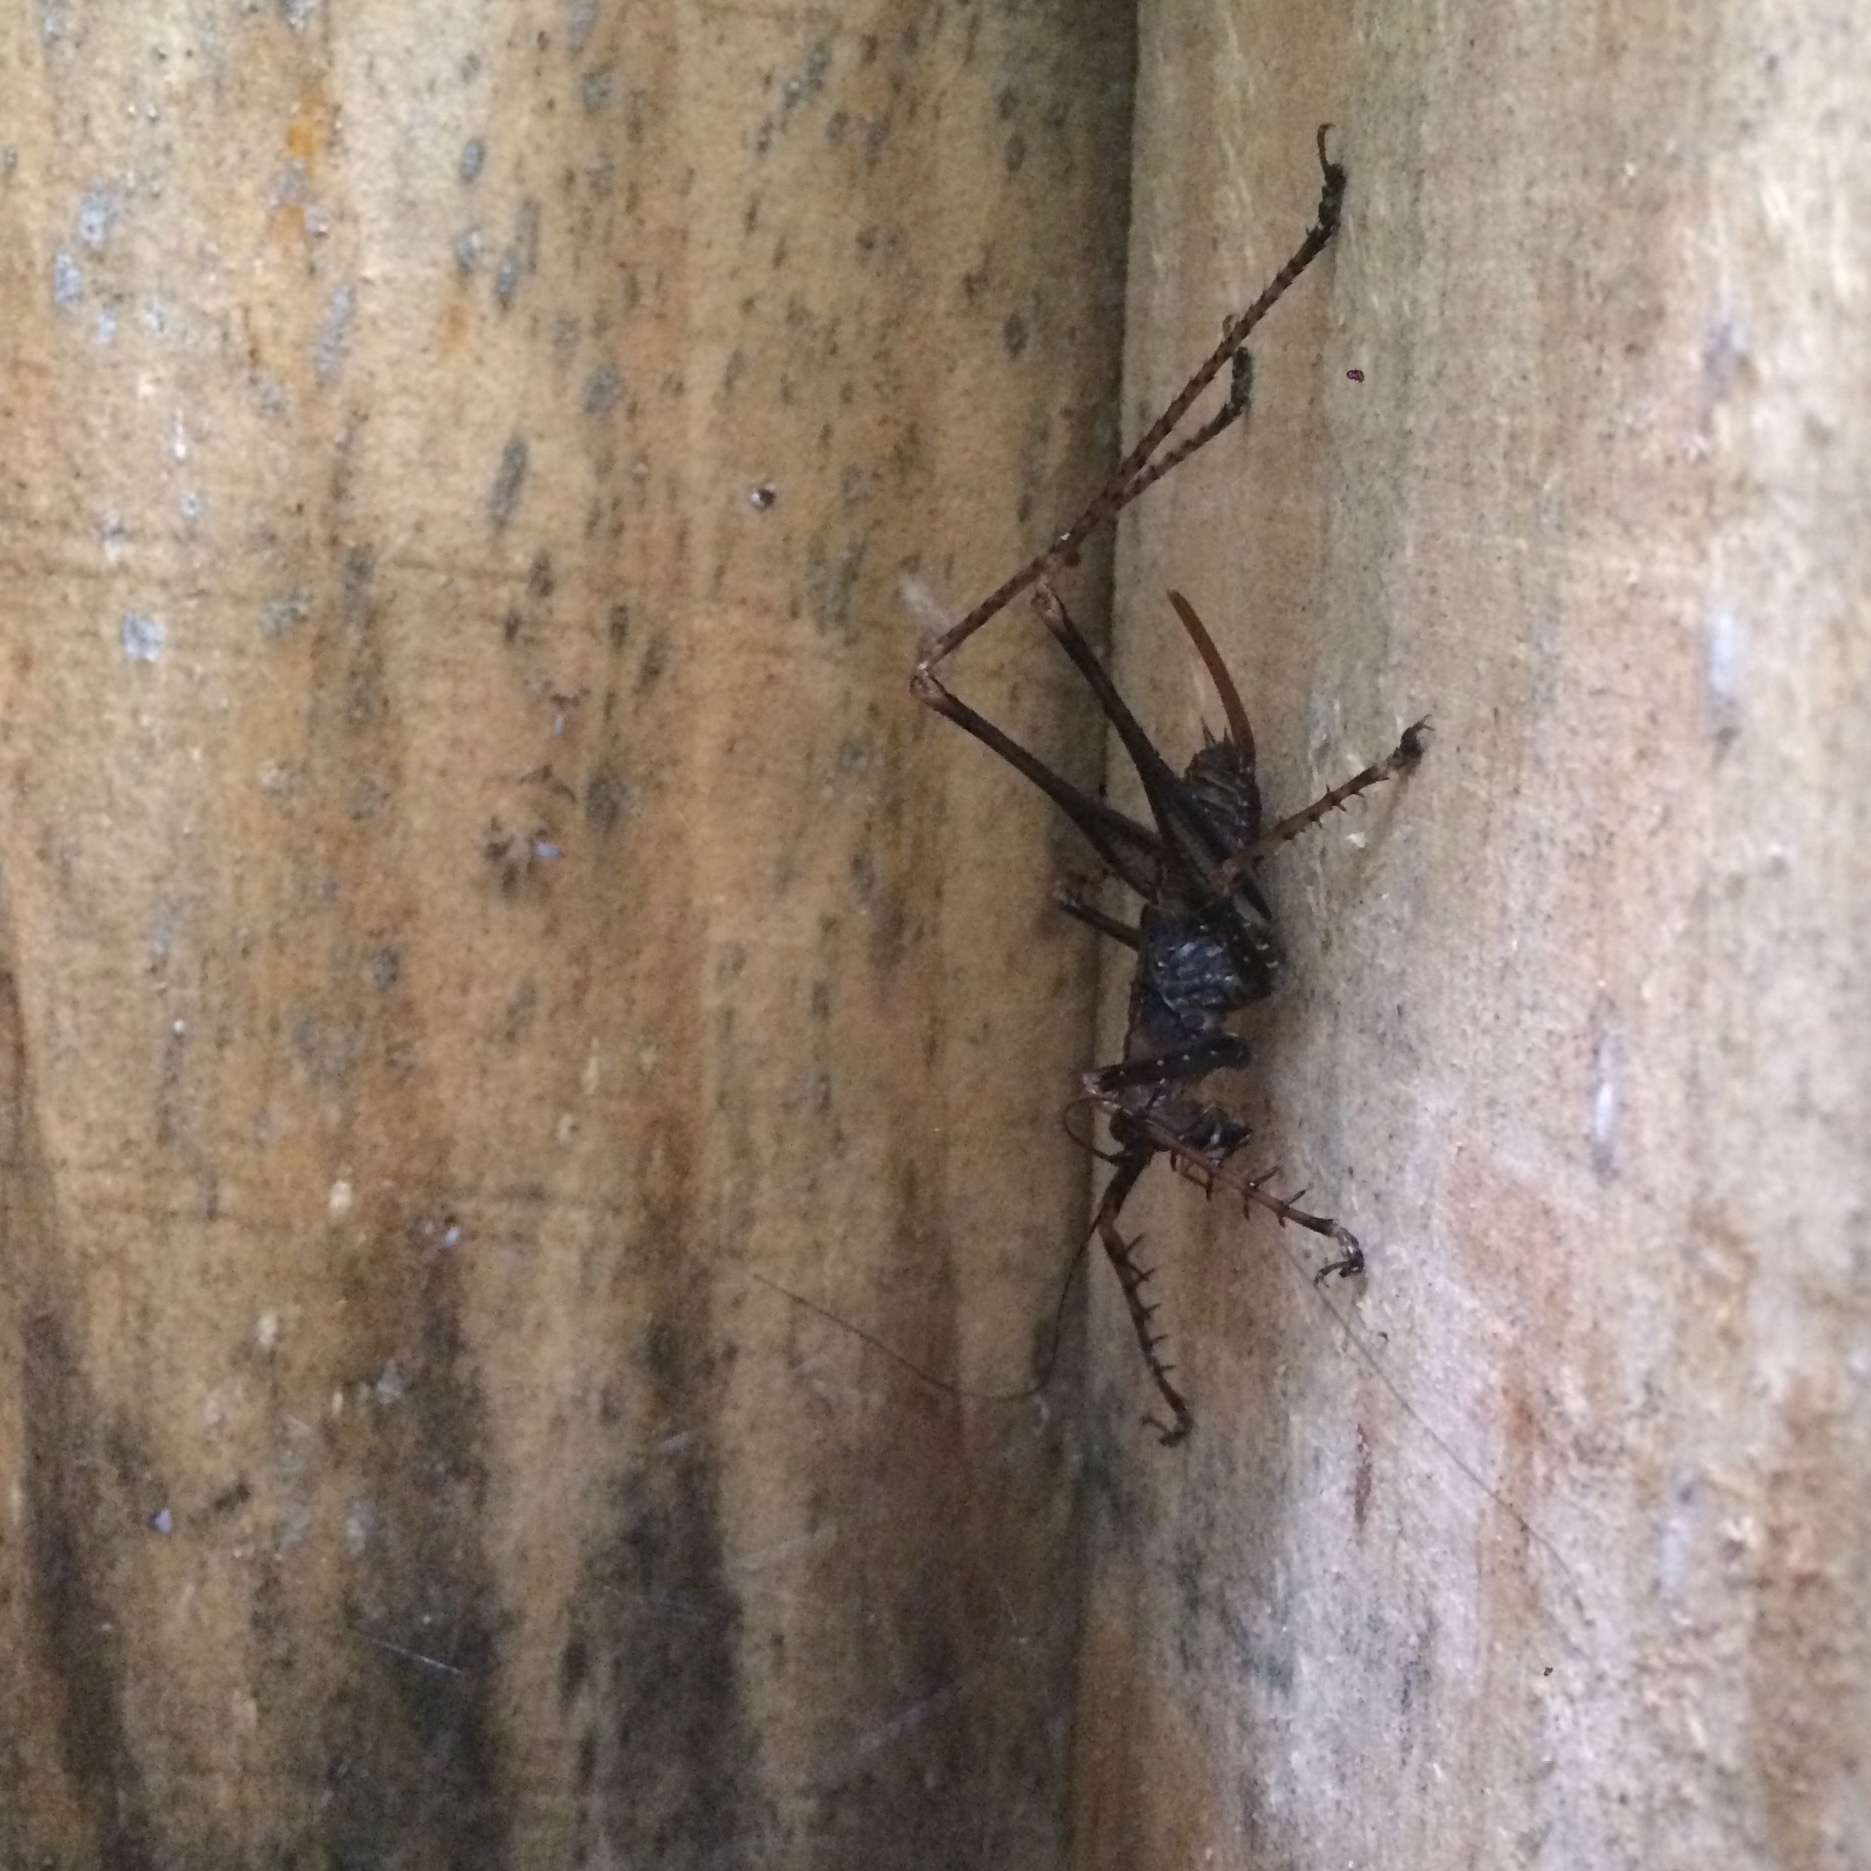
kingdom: Animalia
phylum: Arthropoda
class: Insecta
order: Orthoptera
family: Tettigoniidae
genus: Monocerophora
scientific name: Monocerophora longispina
